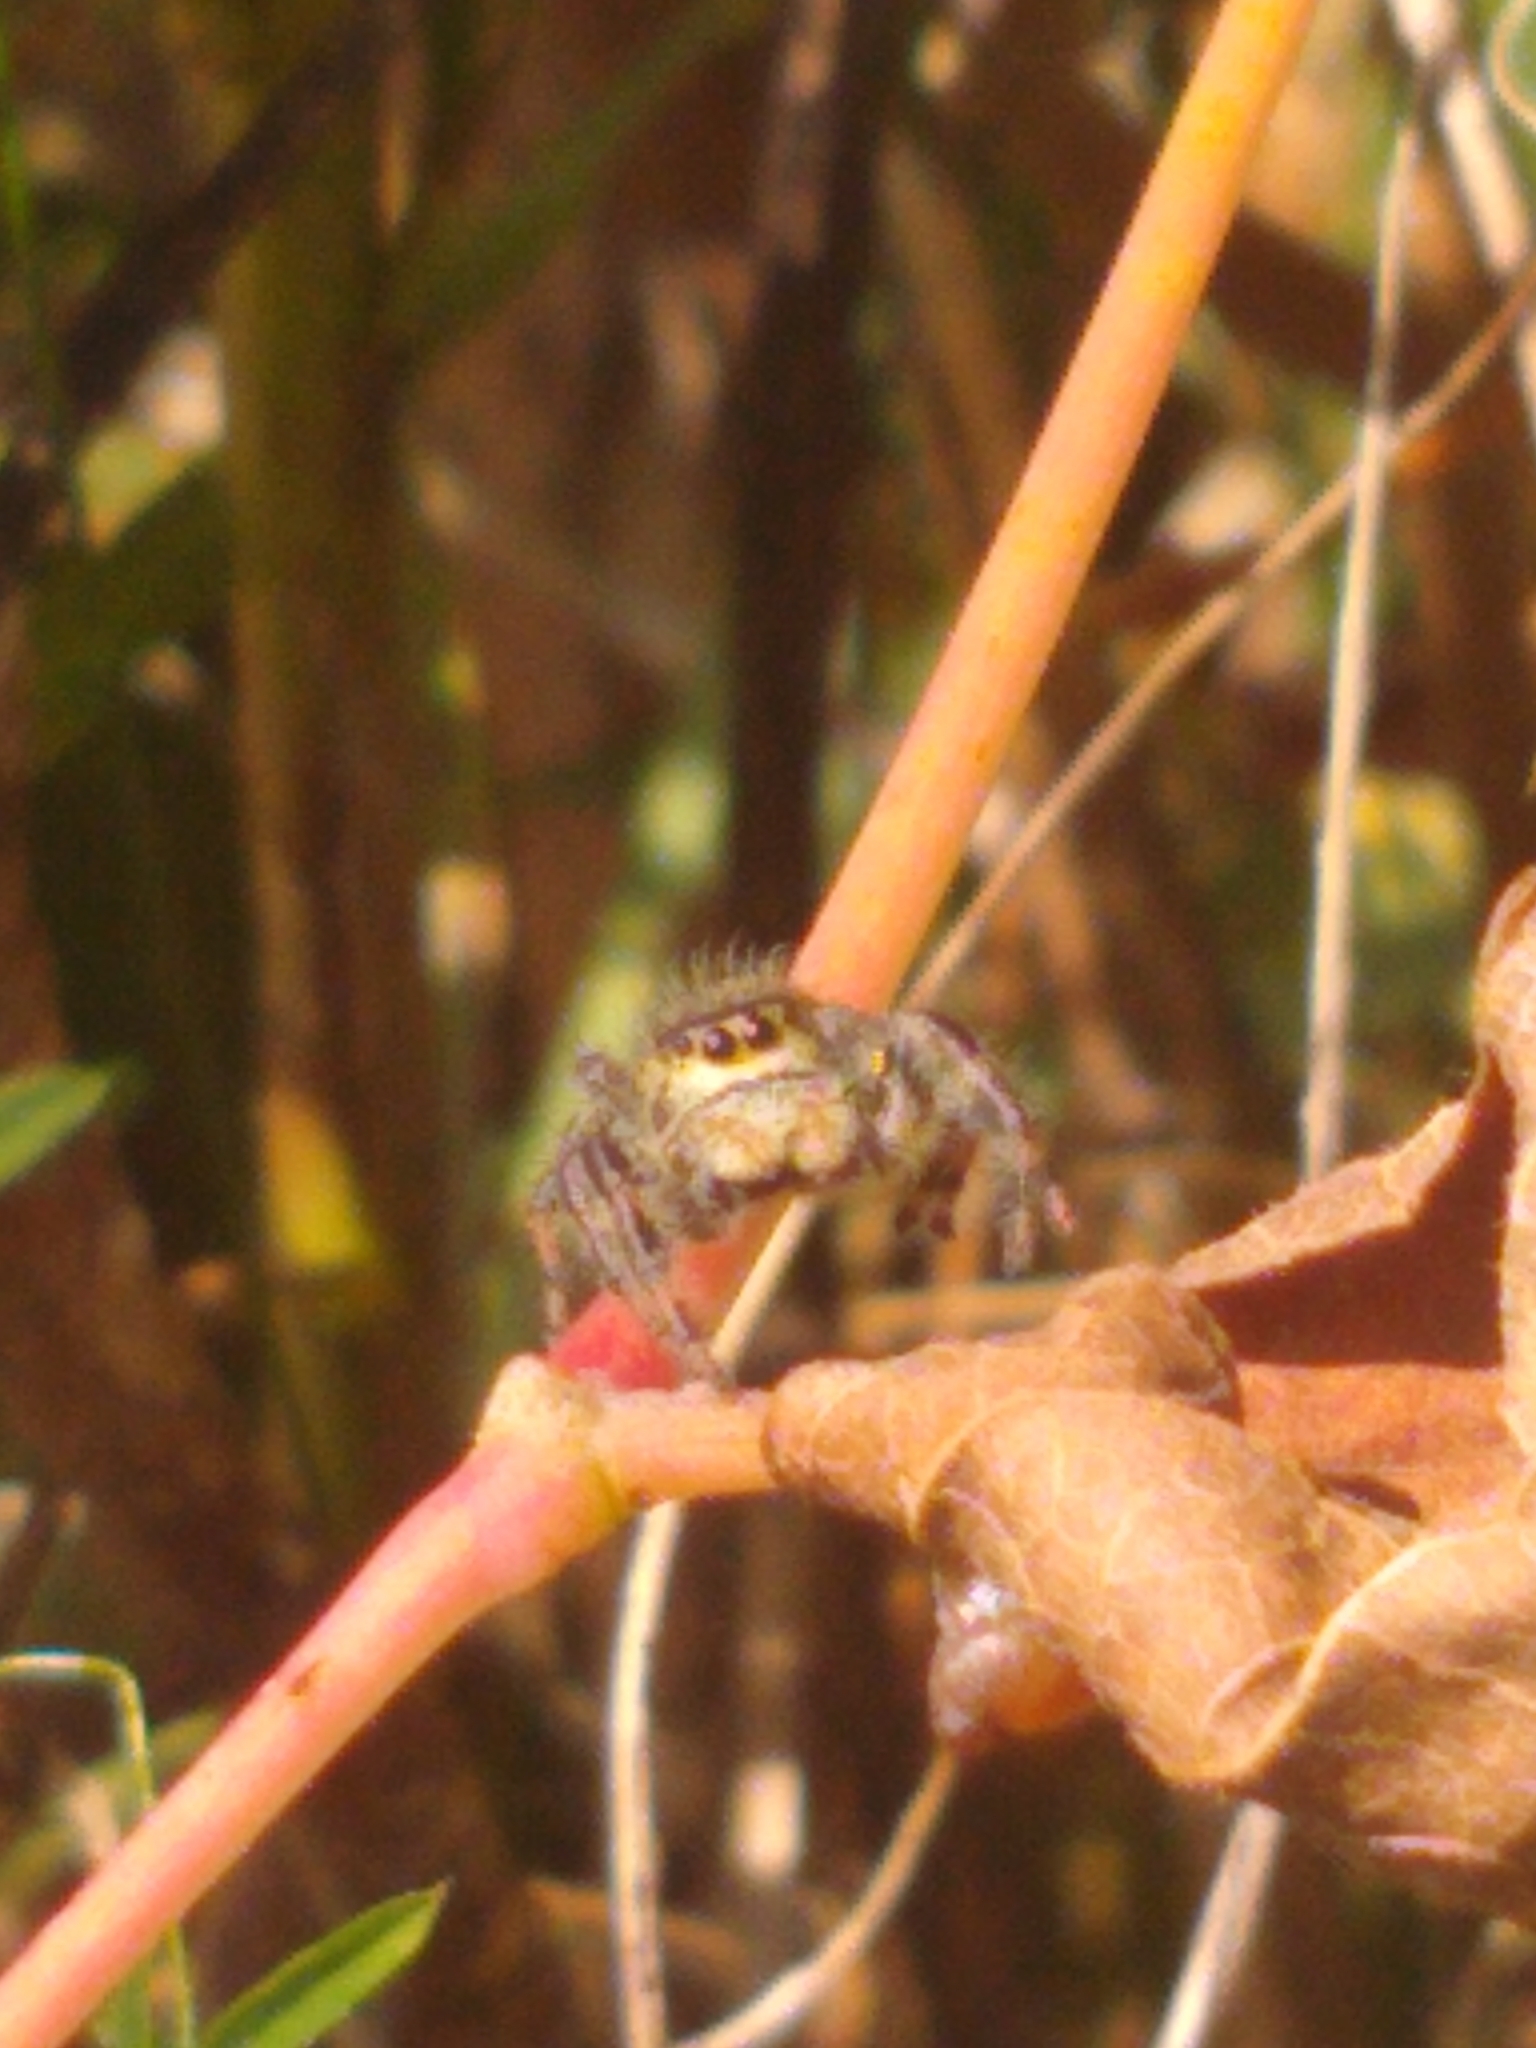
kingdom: Animalia
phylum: Arthropoda
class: Arachnida
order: Araneae
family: Salticidae
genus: Phidippus
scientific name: Phidippus clarus
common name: Brilliant jumping spider
